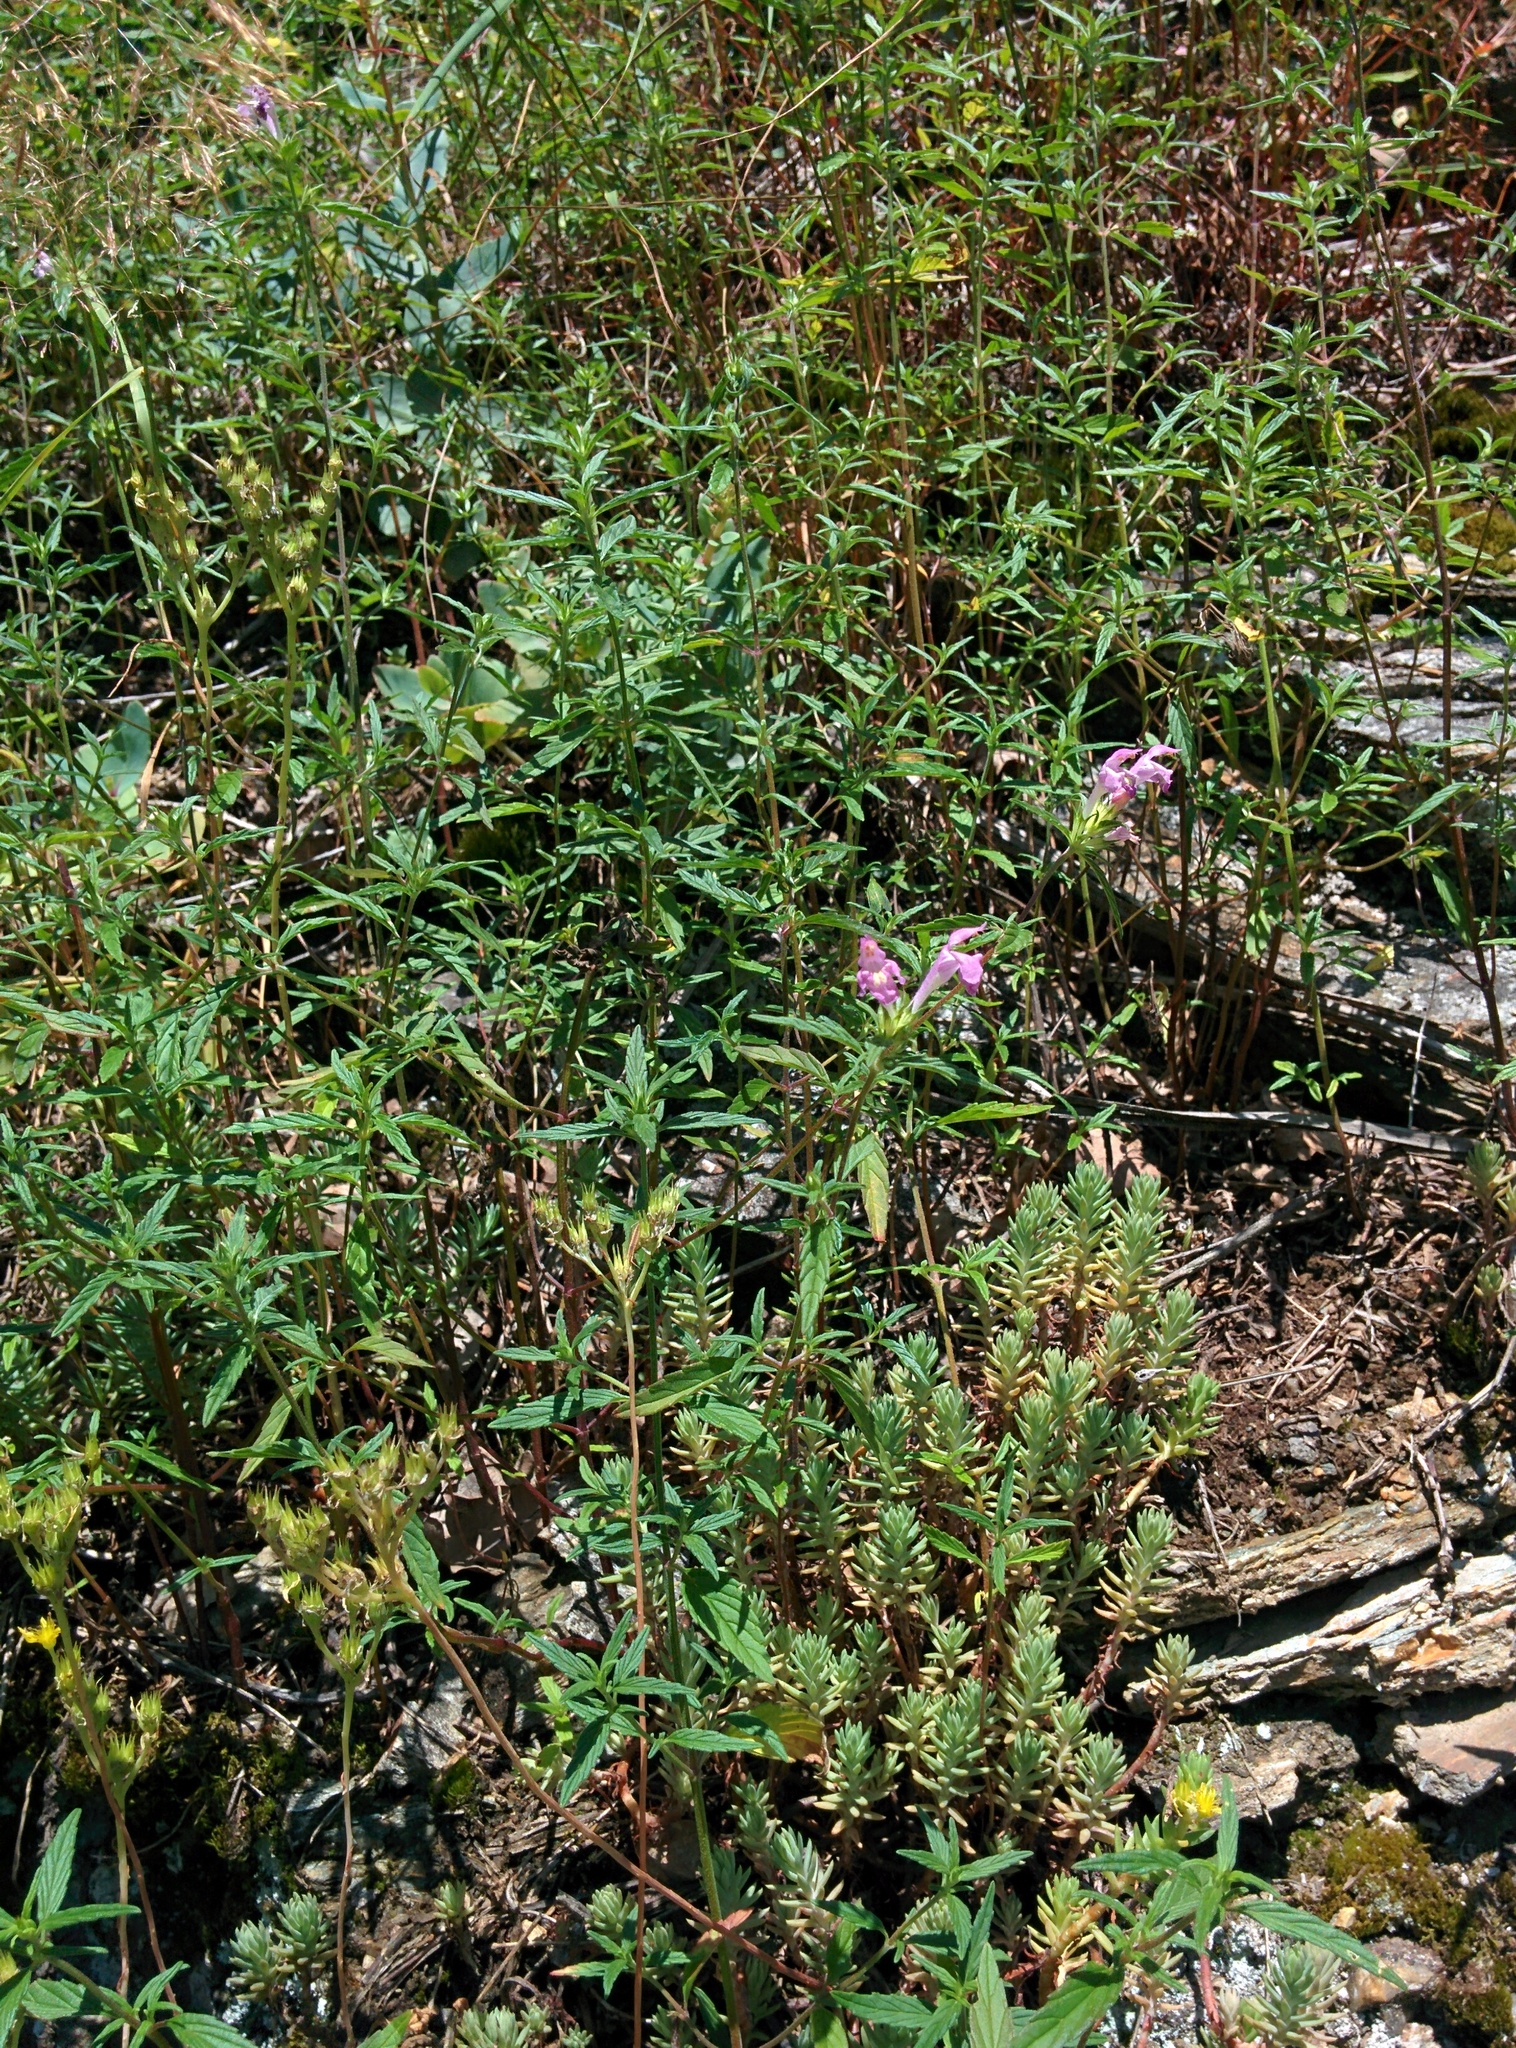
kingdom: Plantae
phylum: Tracheophyta
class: Magnoliopsida
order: Lamiales
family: Lamiaceae
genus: Galeopsis
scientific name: Galeopsis angustifolia
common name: Red hemp-nettle
